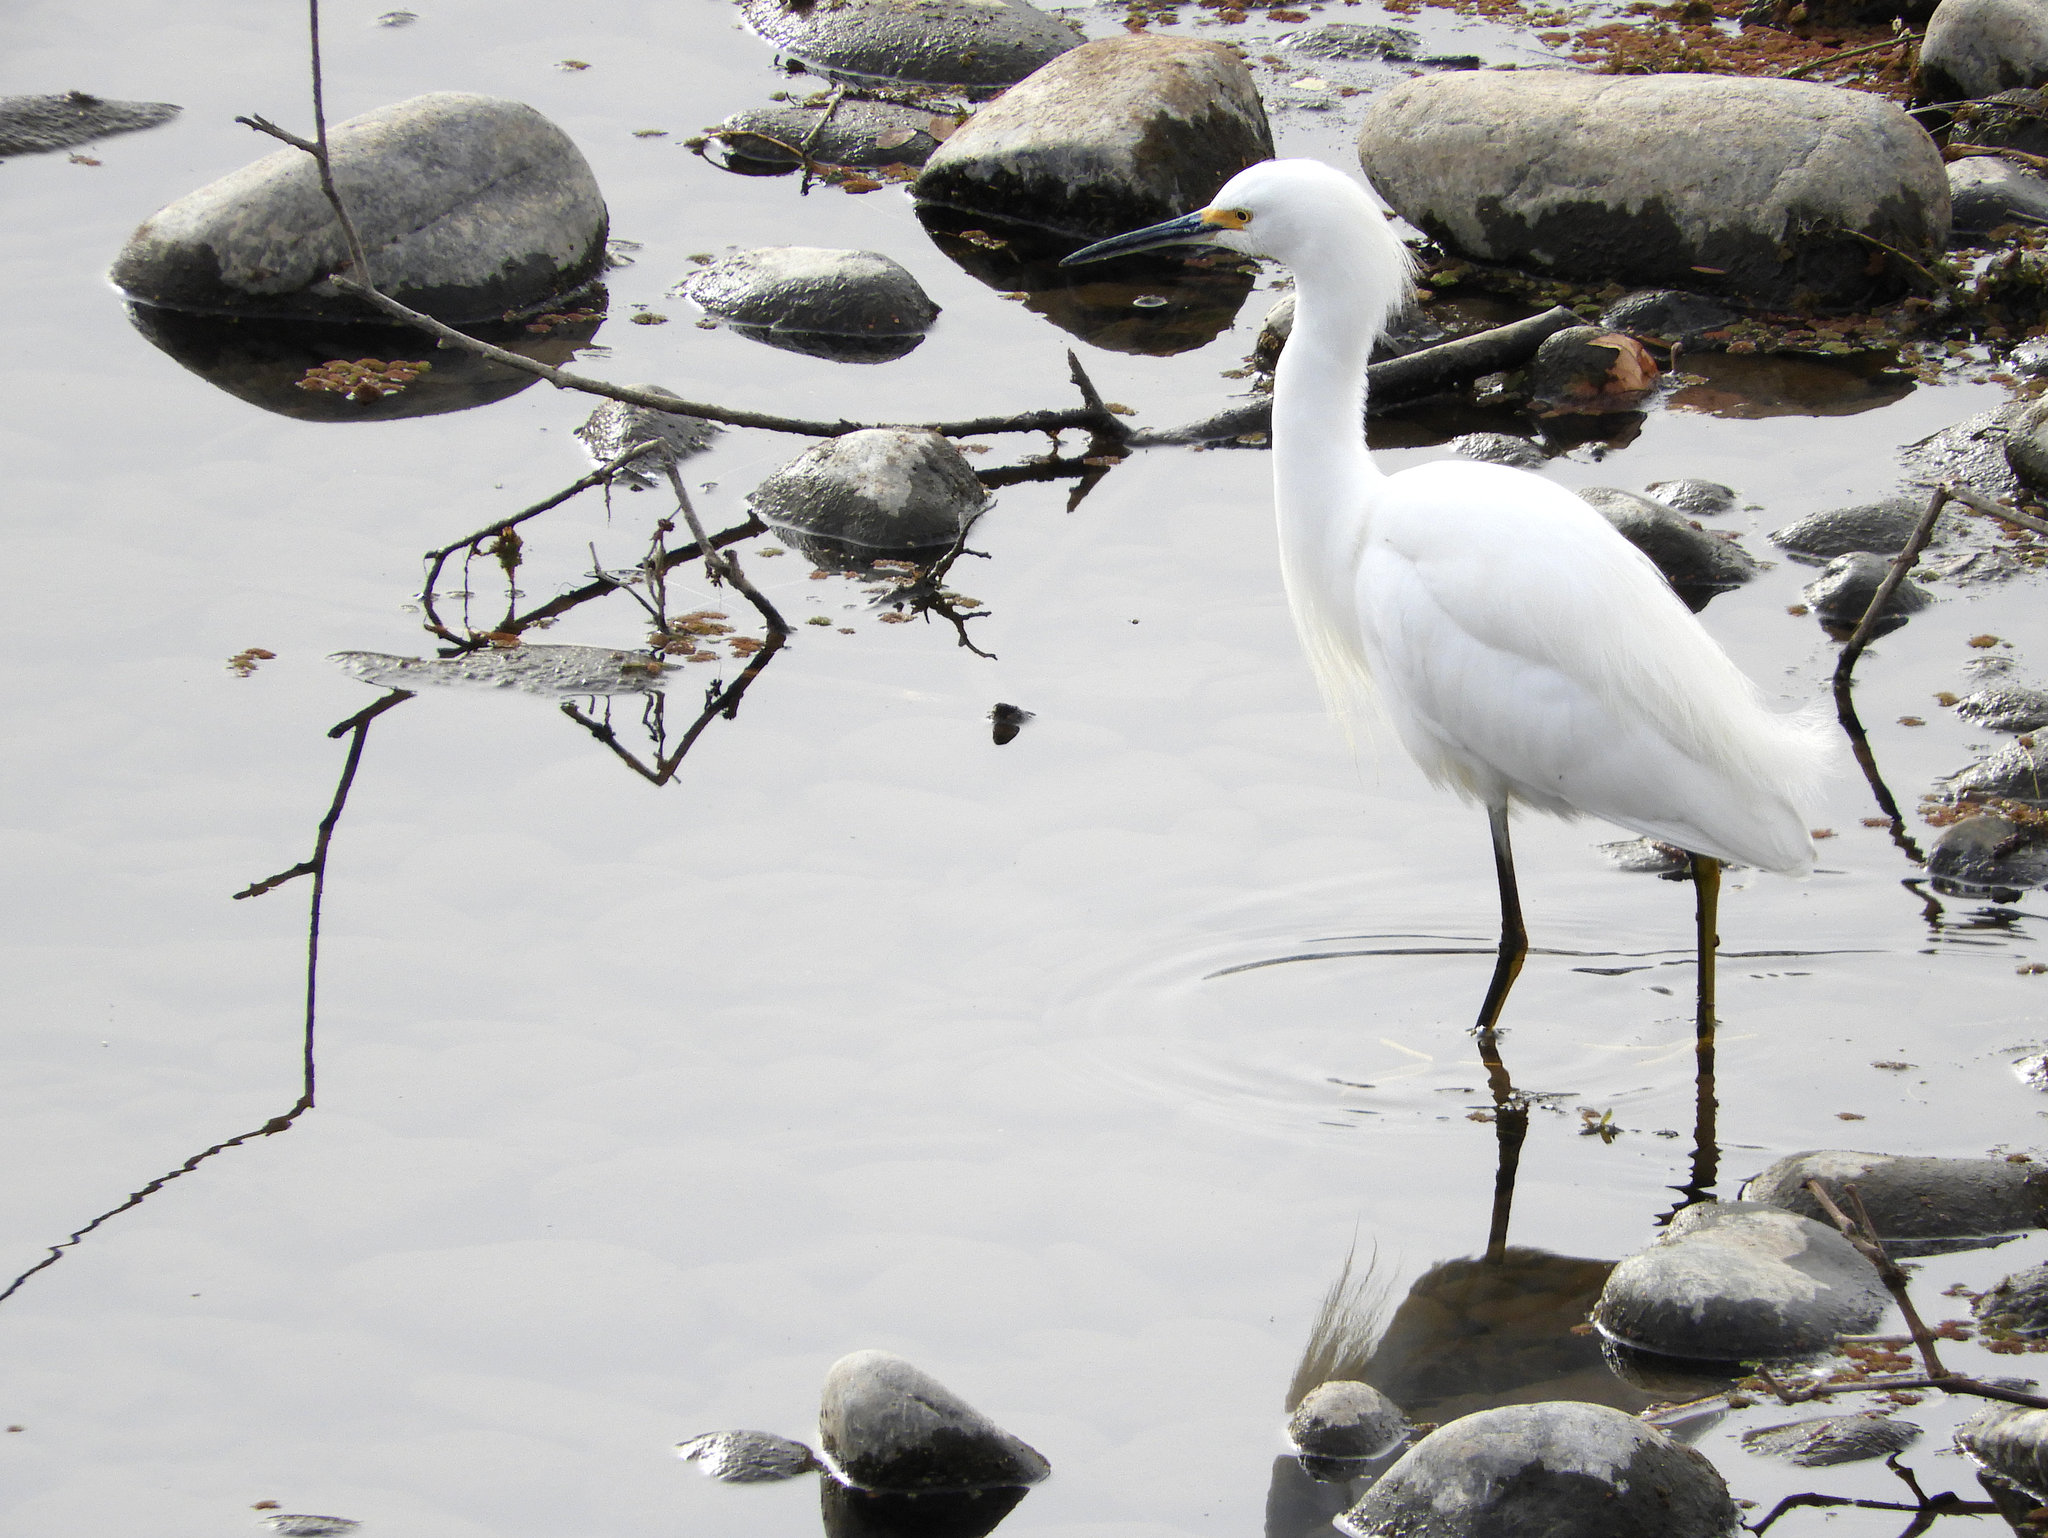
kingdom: Animalia
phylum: Chordata
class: Aves
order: Pelecaniformes
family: Ardeidae
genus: Egretta
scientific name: Egretta thula
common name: Snowy egret
